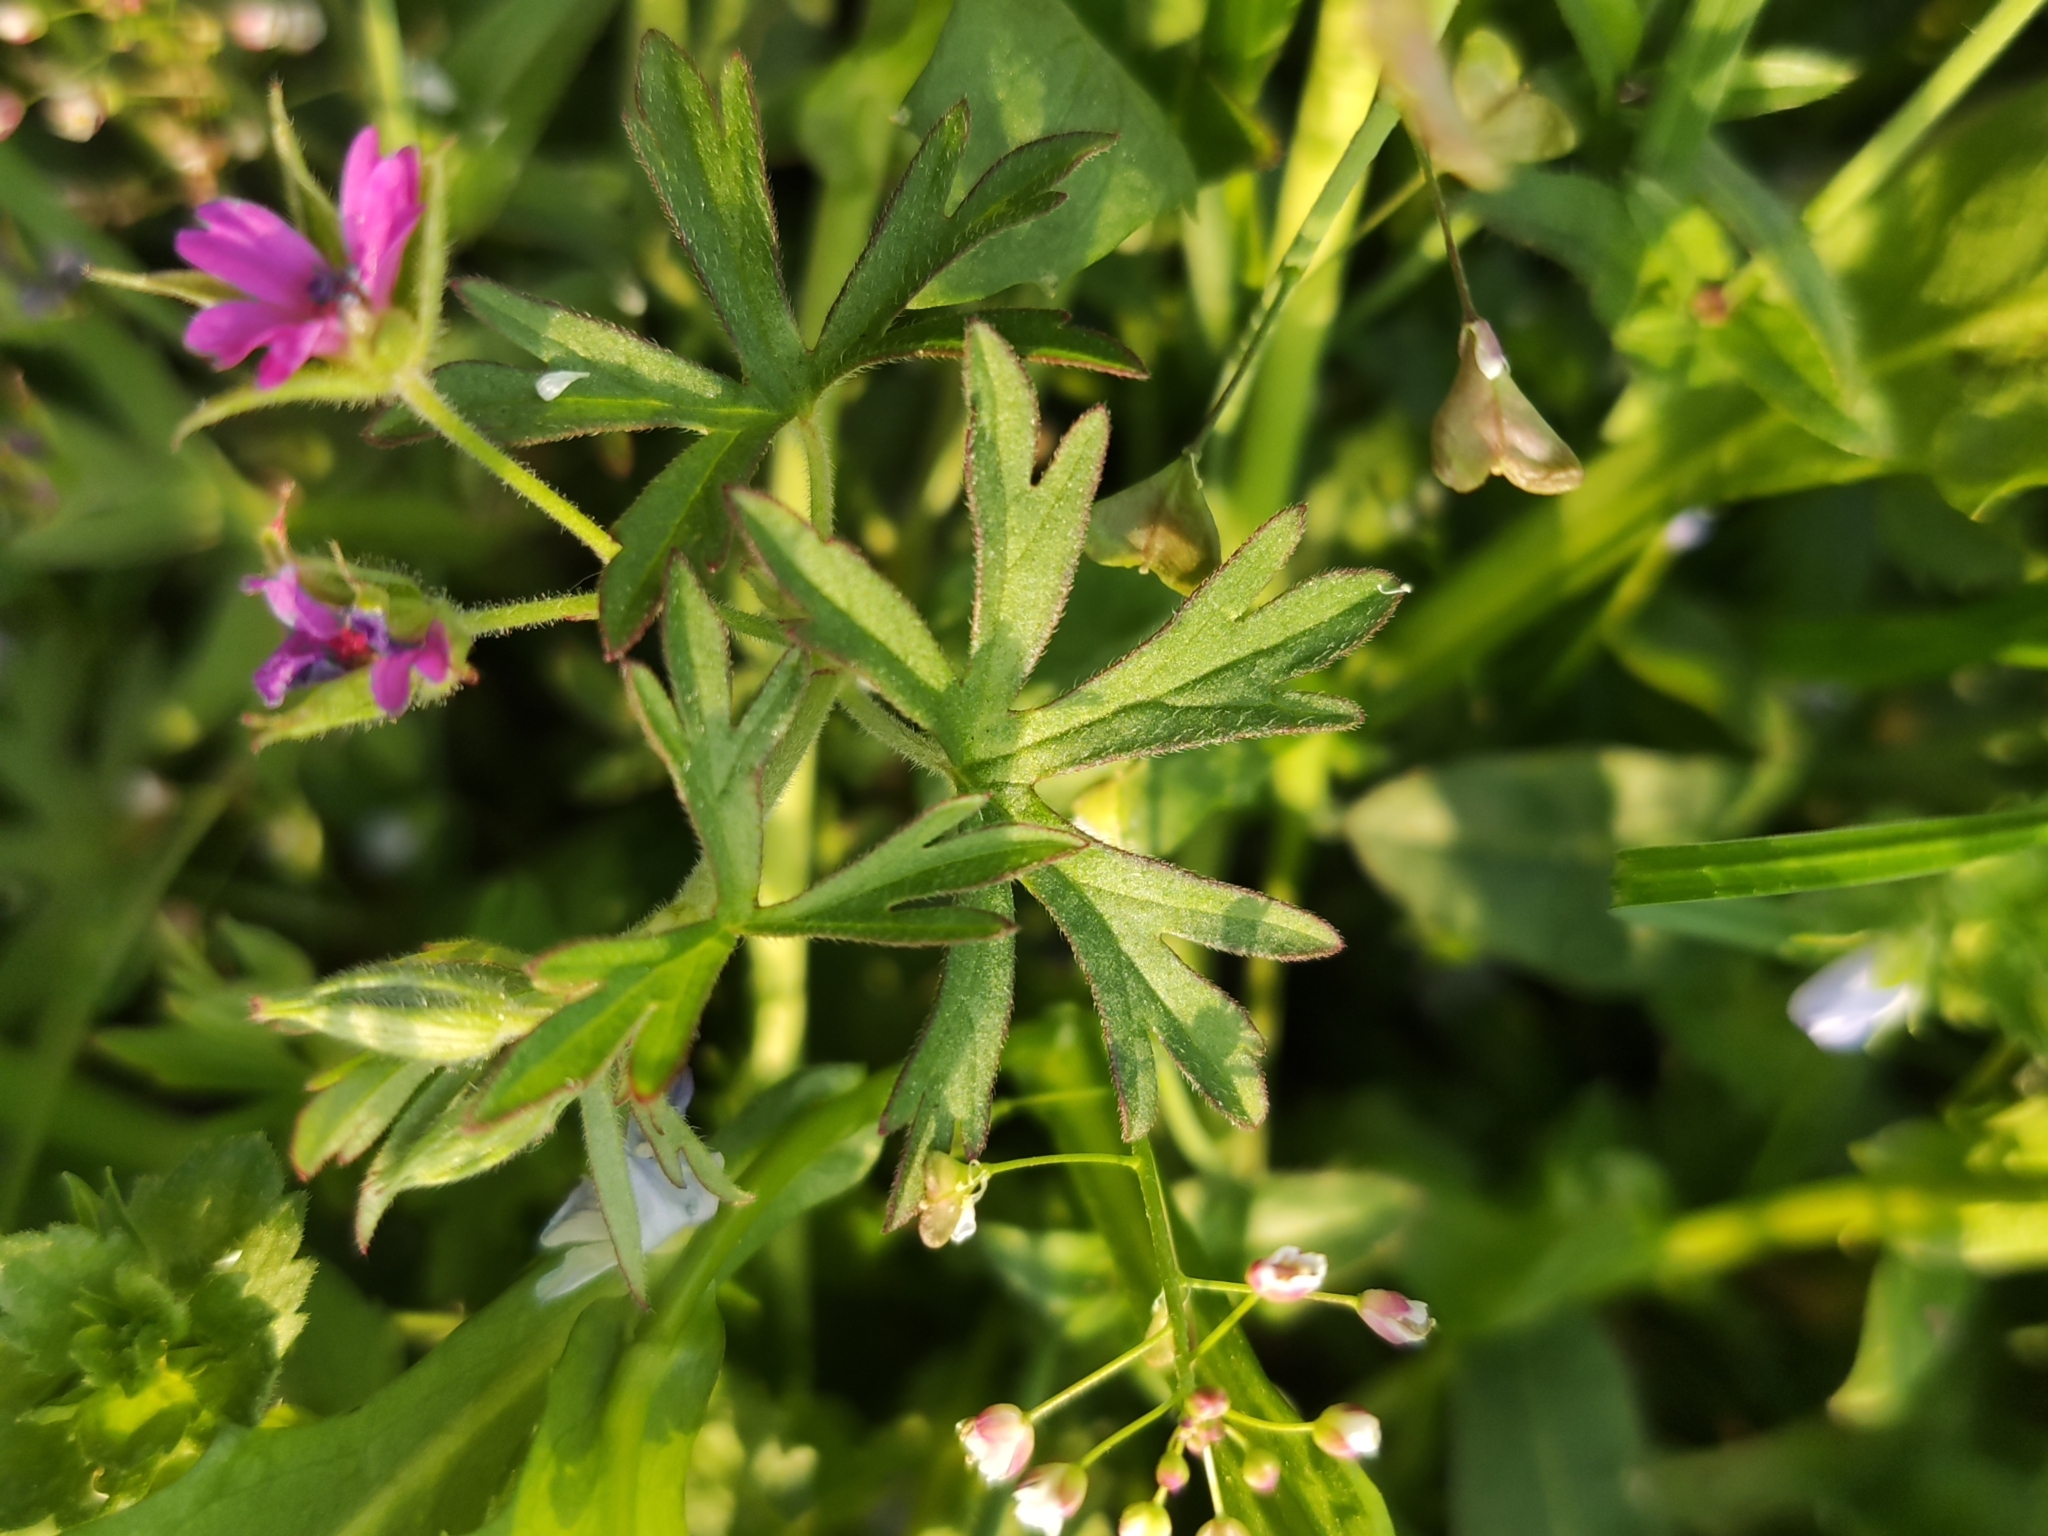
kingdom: Plantae
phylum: Tracheophyta
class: Magnoliopsida
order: Geraniales
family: Geraniaceae
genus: Geranium
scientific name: Geranium dissectum
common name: Cut-leaved crane's-bill
